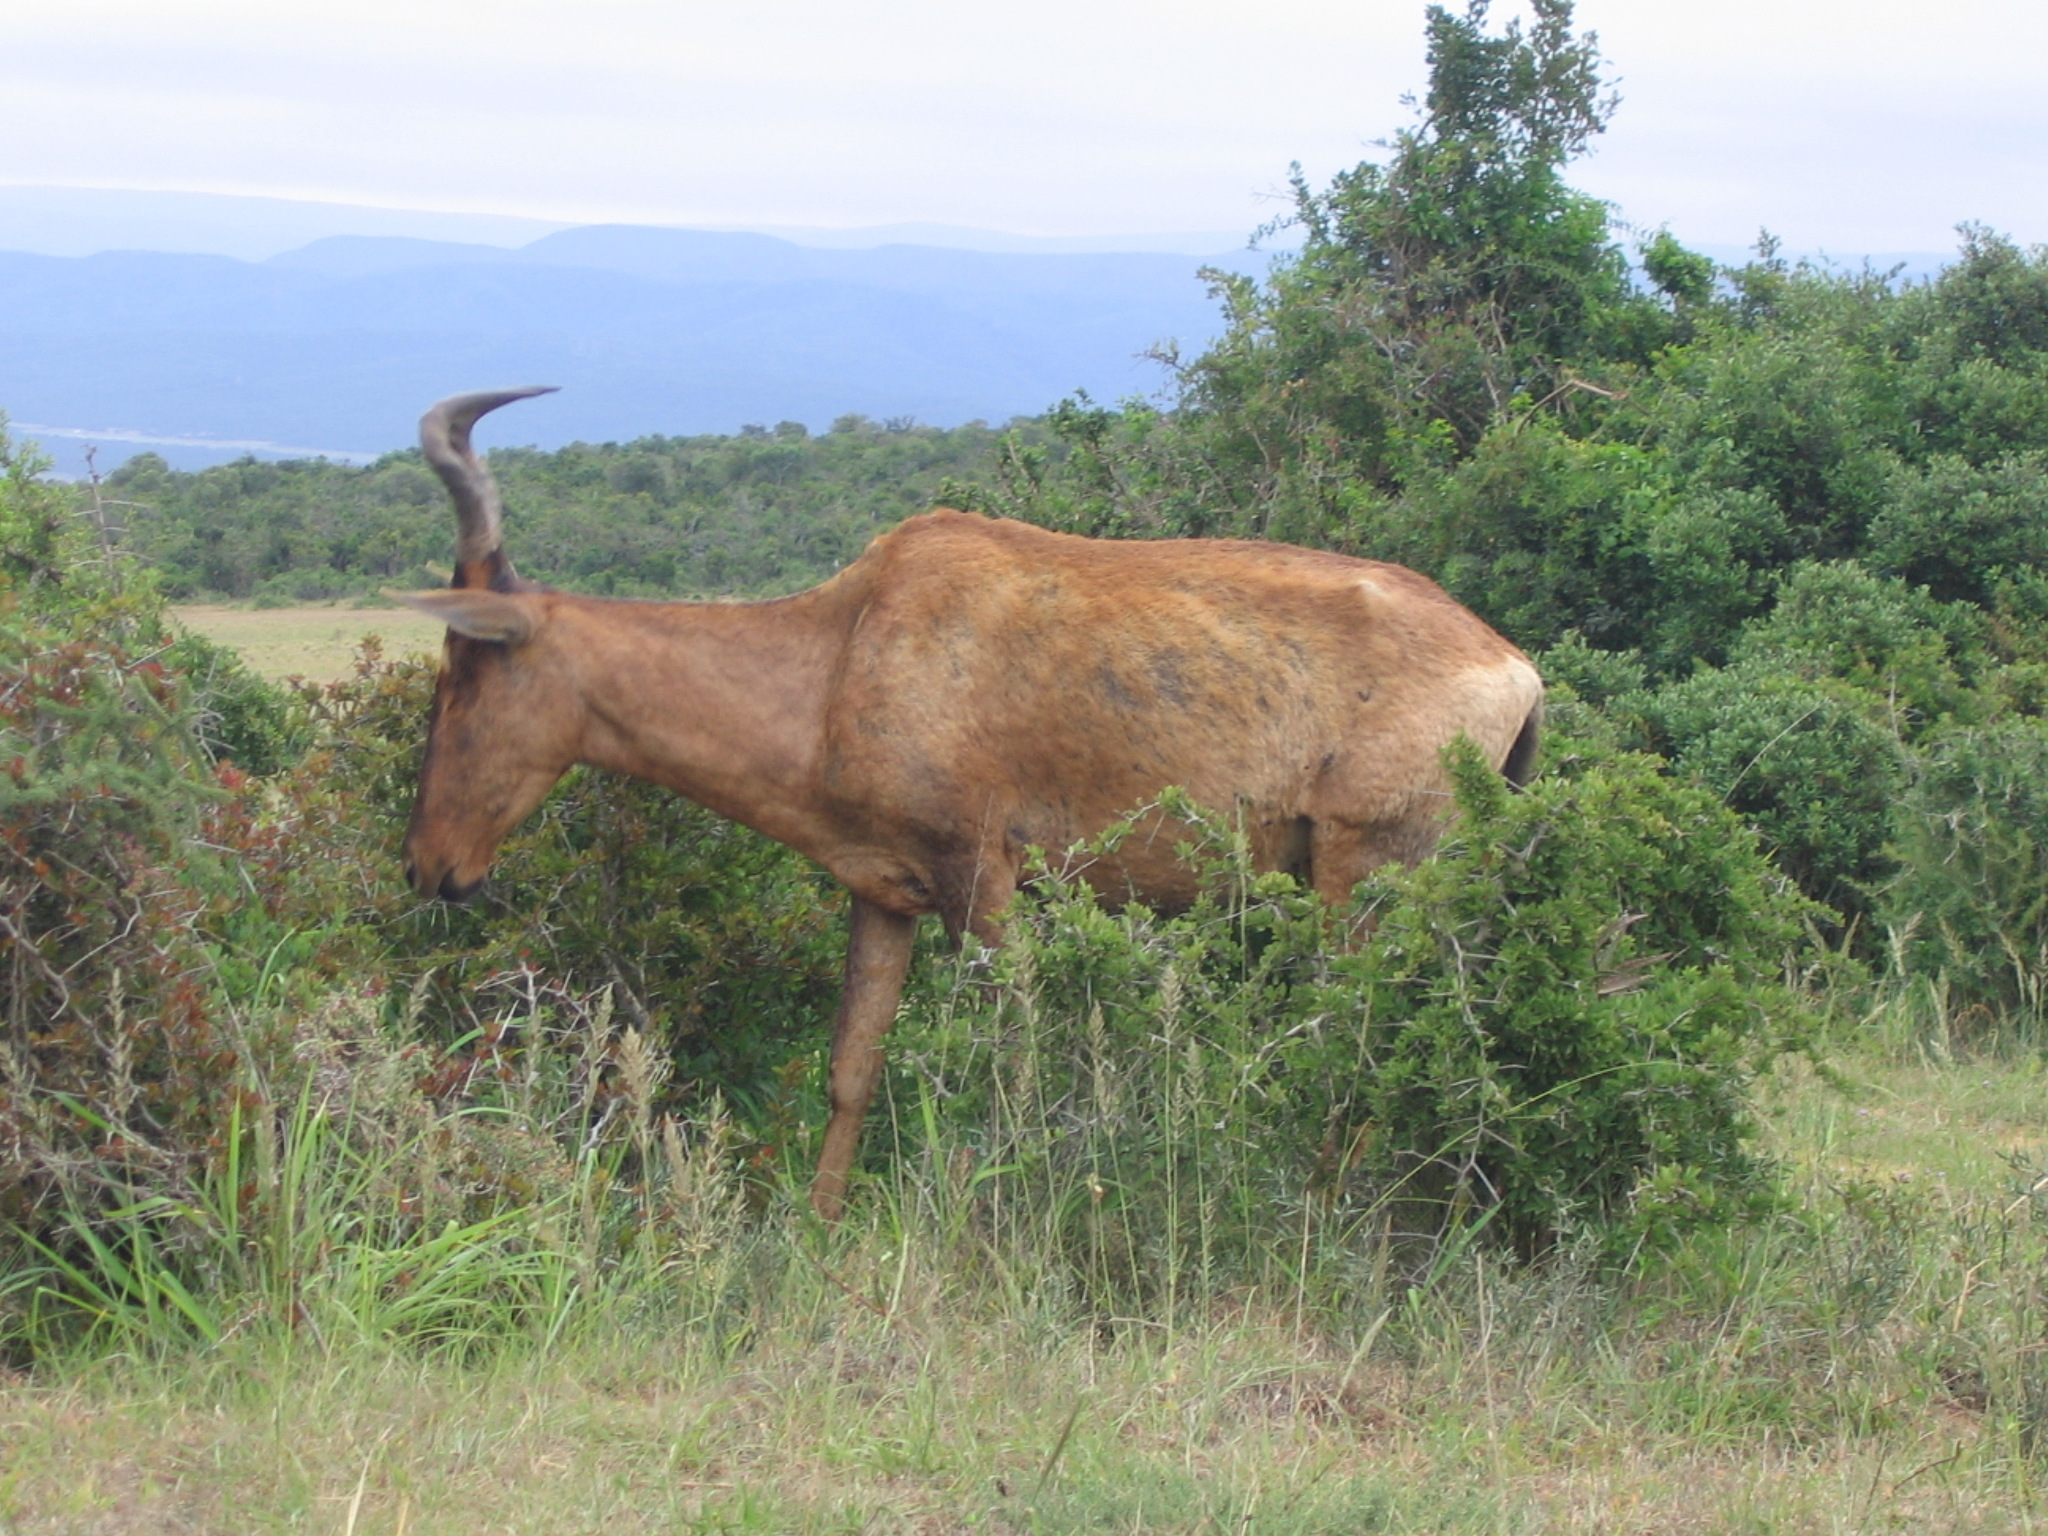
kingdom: Animalia
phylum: Chordata
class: Mammalia
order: Artiodactyla
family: Bovidae
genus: Alcelaphus
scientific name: Alcelaphus caama
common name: Red hartebeest
